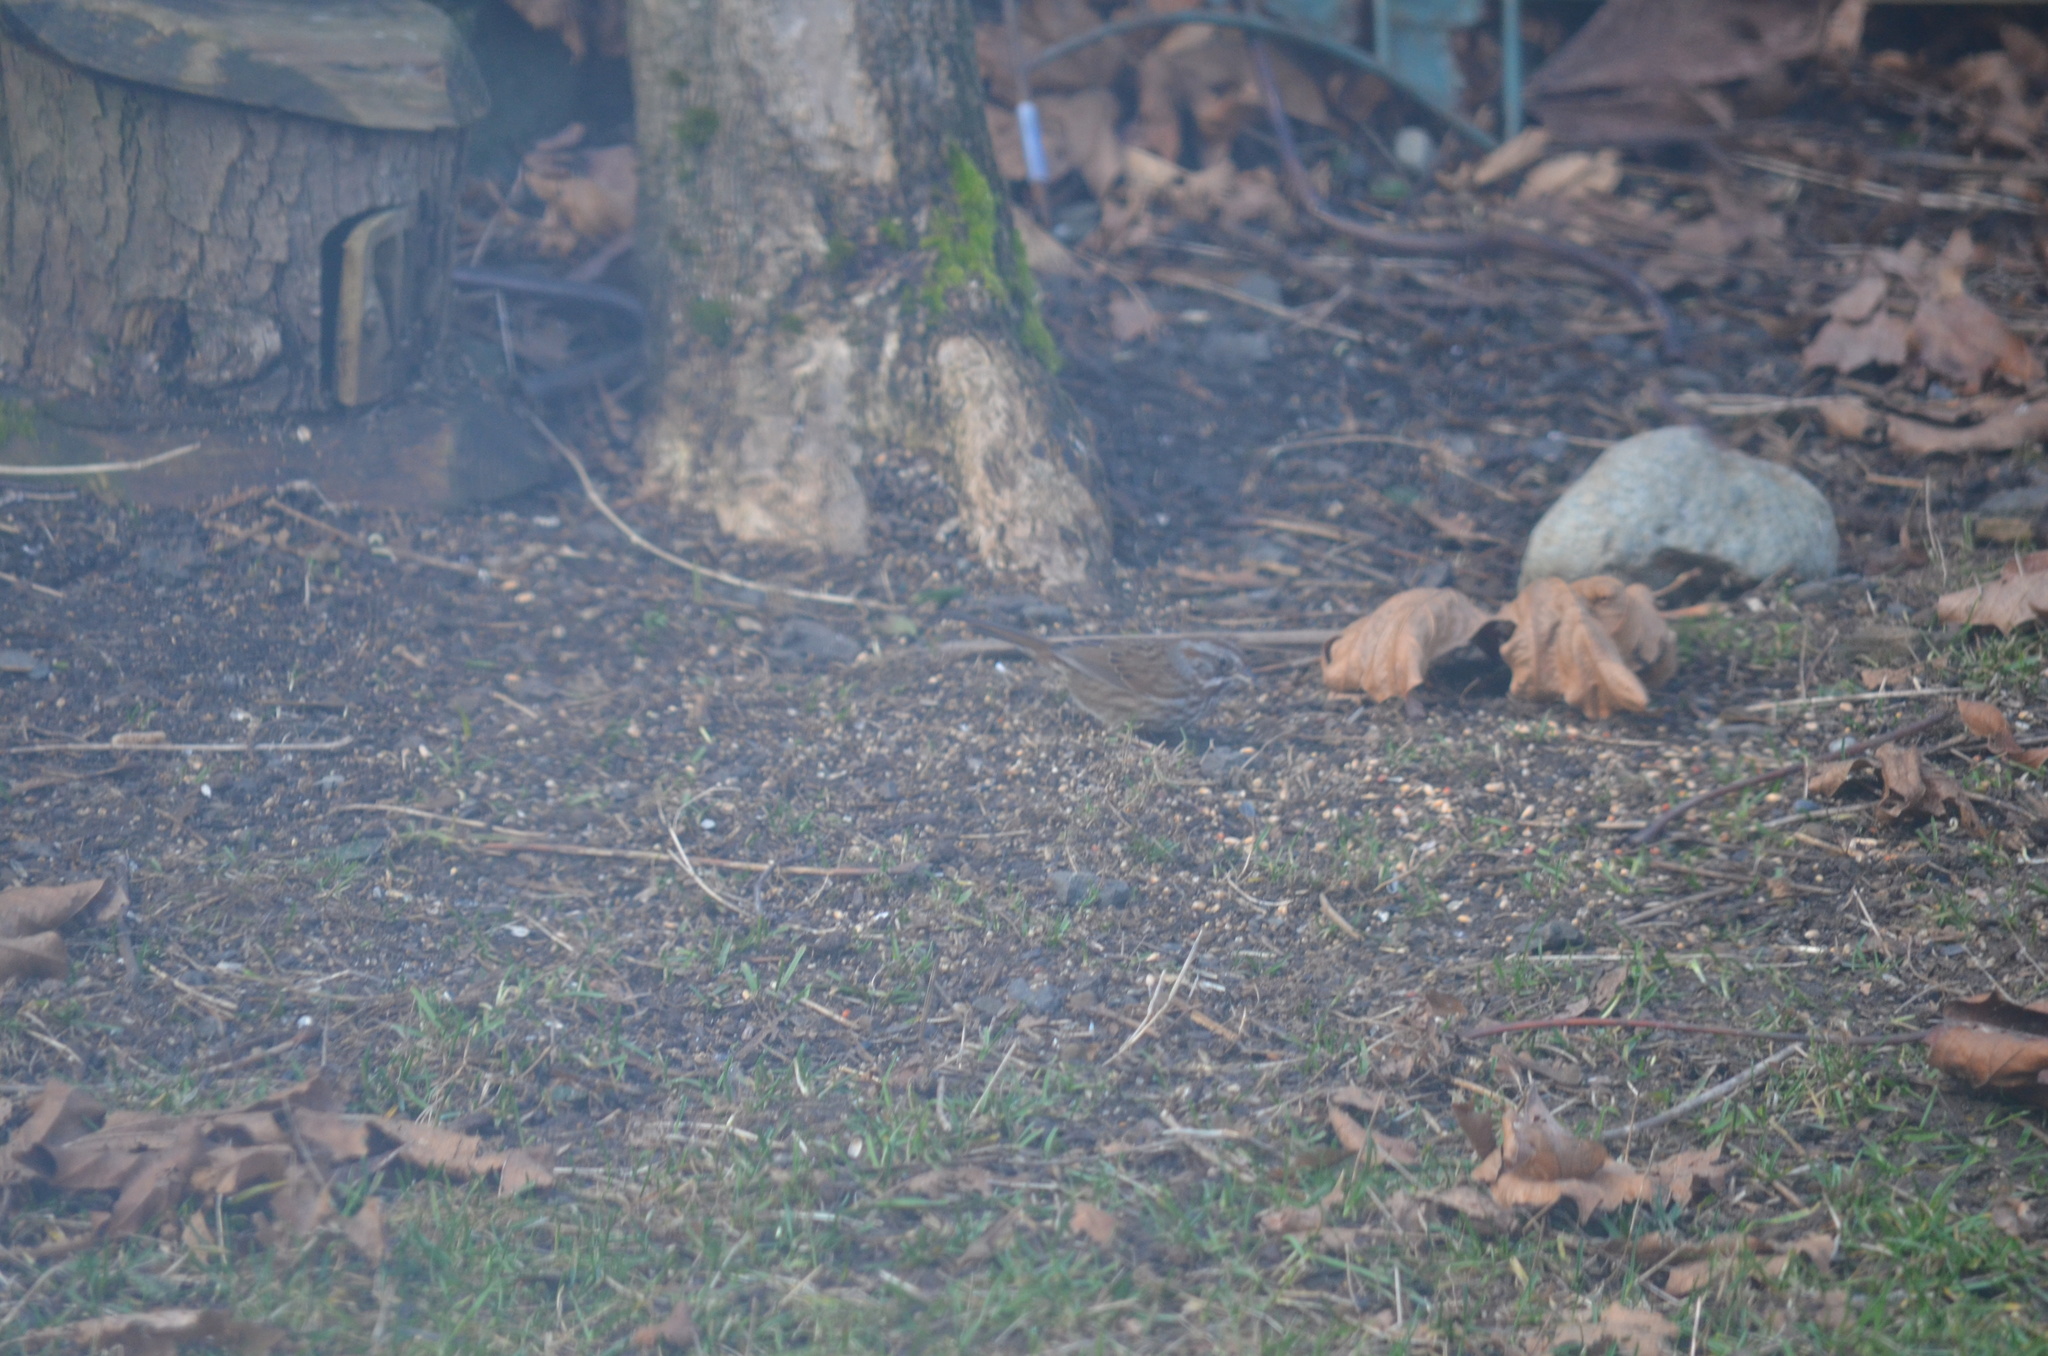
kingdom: Animalia
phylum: Chordata
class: Aves
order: Passeriformes
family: Passerellidae
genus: Melospiza
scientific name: Melospiza melodia
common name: Song sparrow
